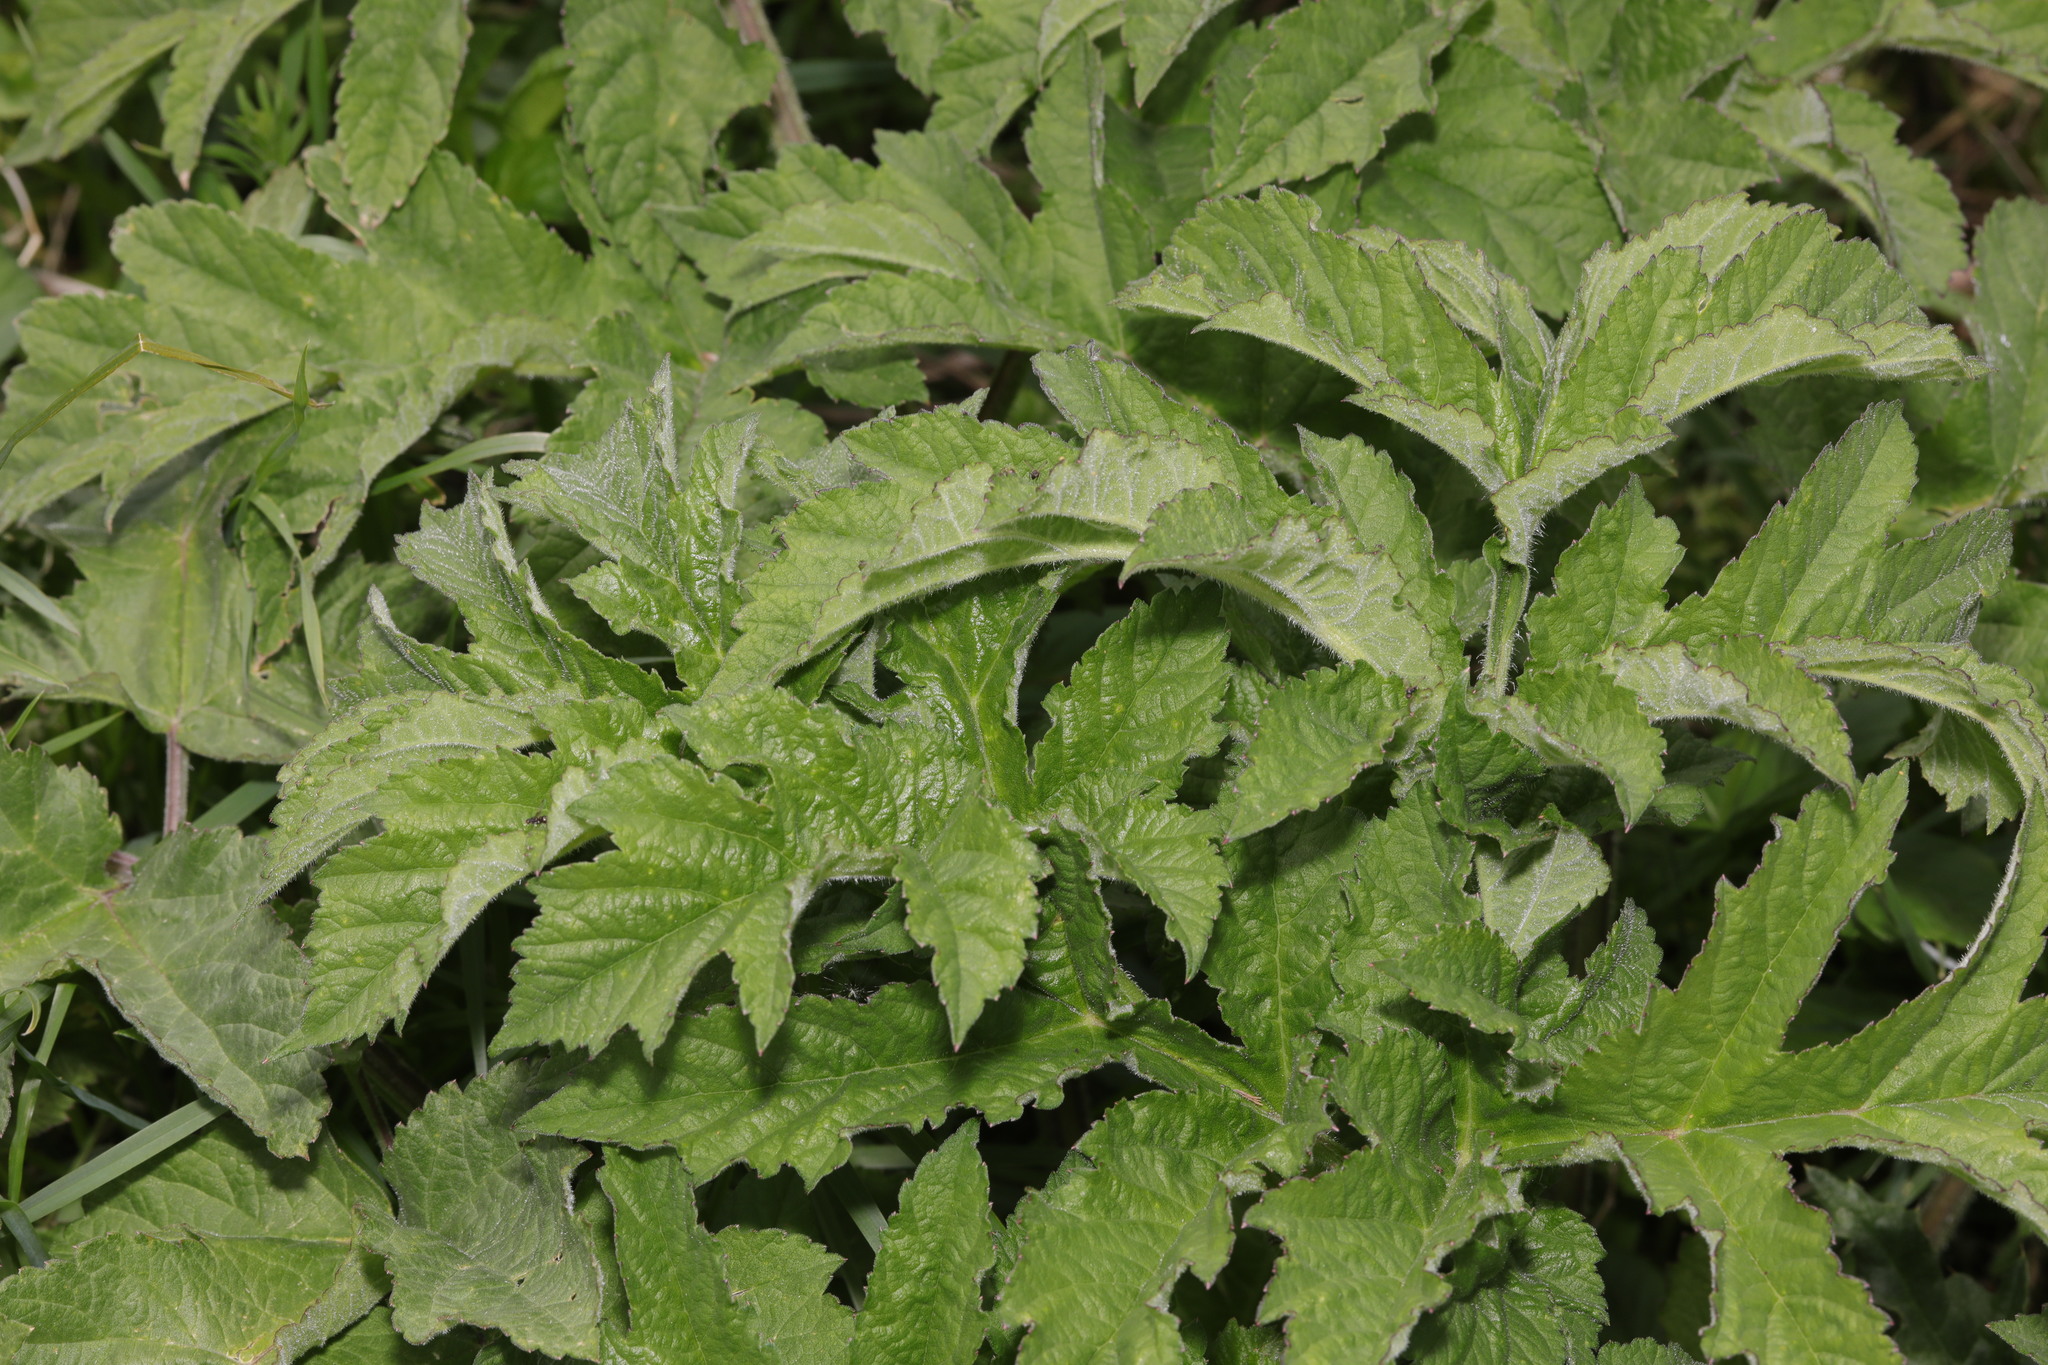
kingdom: Plantae
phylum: Tracheophyta
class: Magnoliopsida
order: Apiales
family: Apiaceae
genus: Heracleum
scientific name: Heracleum sphondylium
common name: Hogweed
